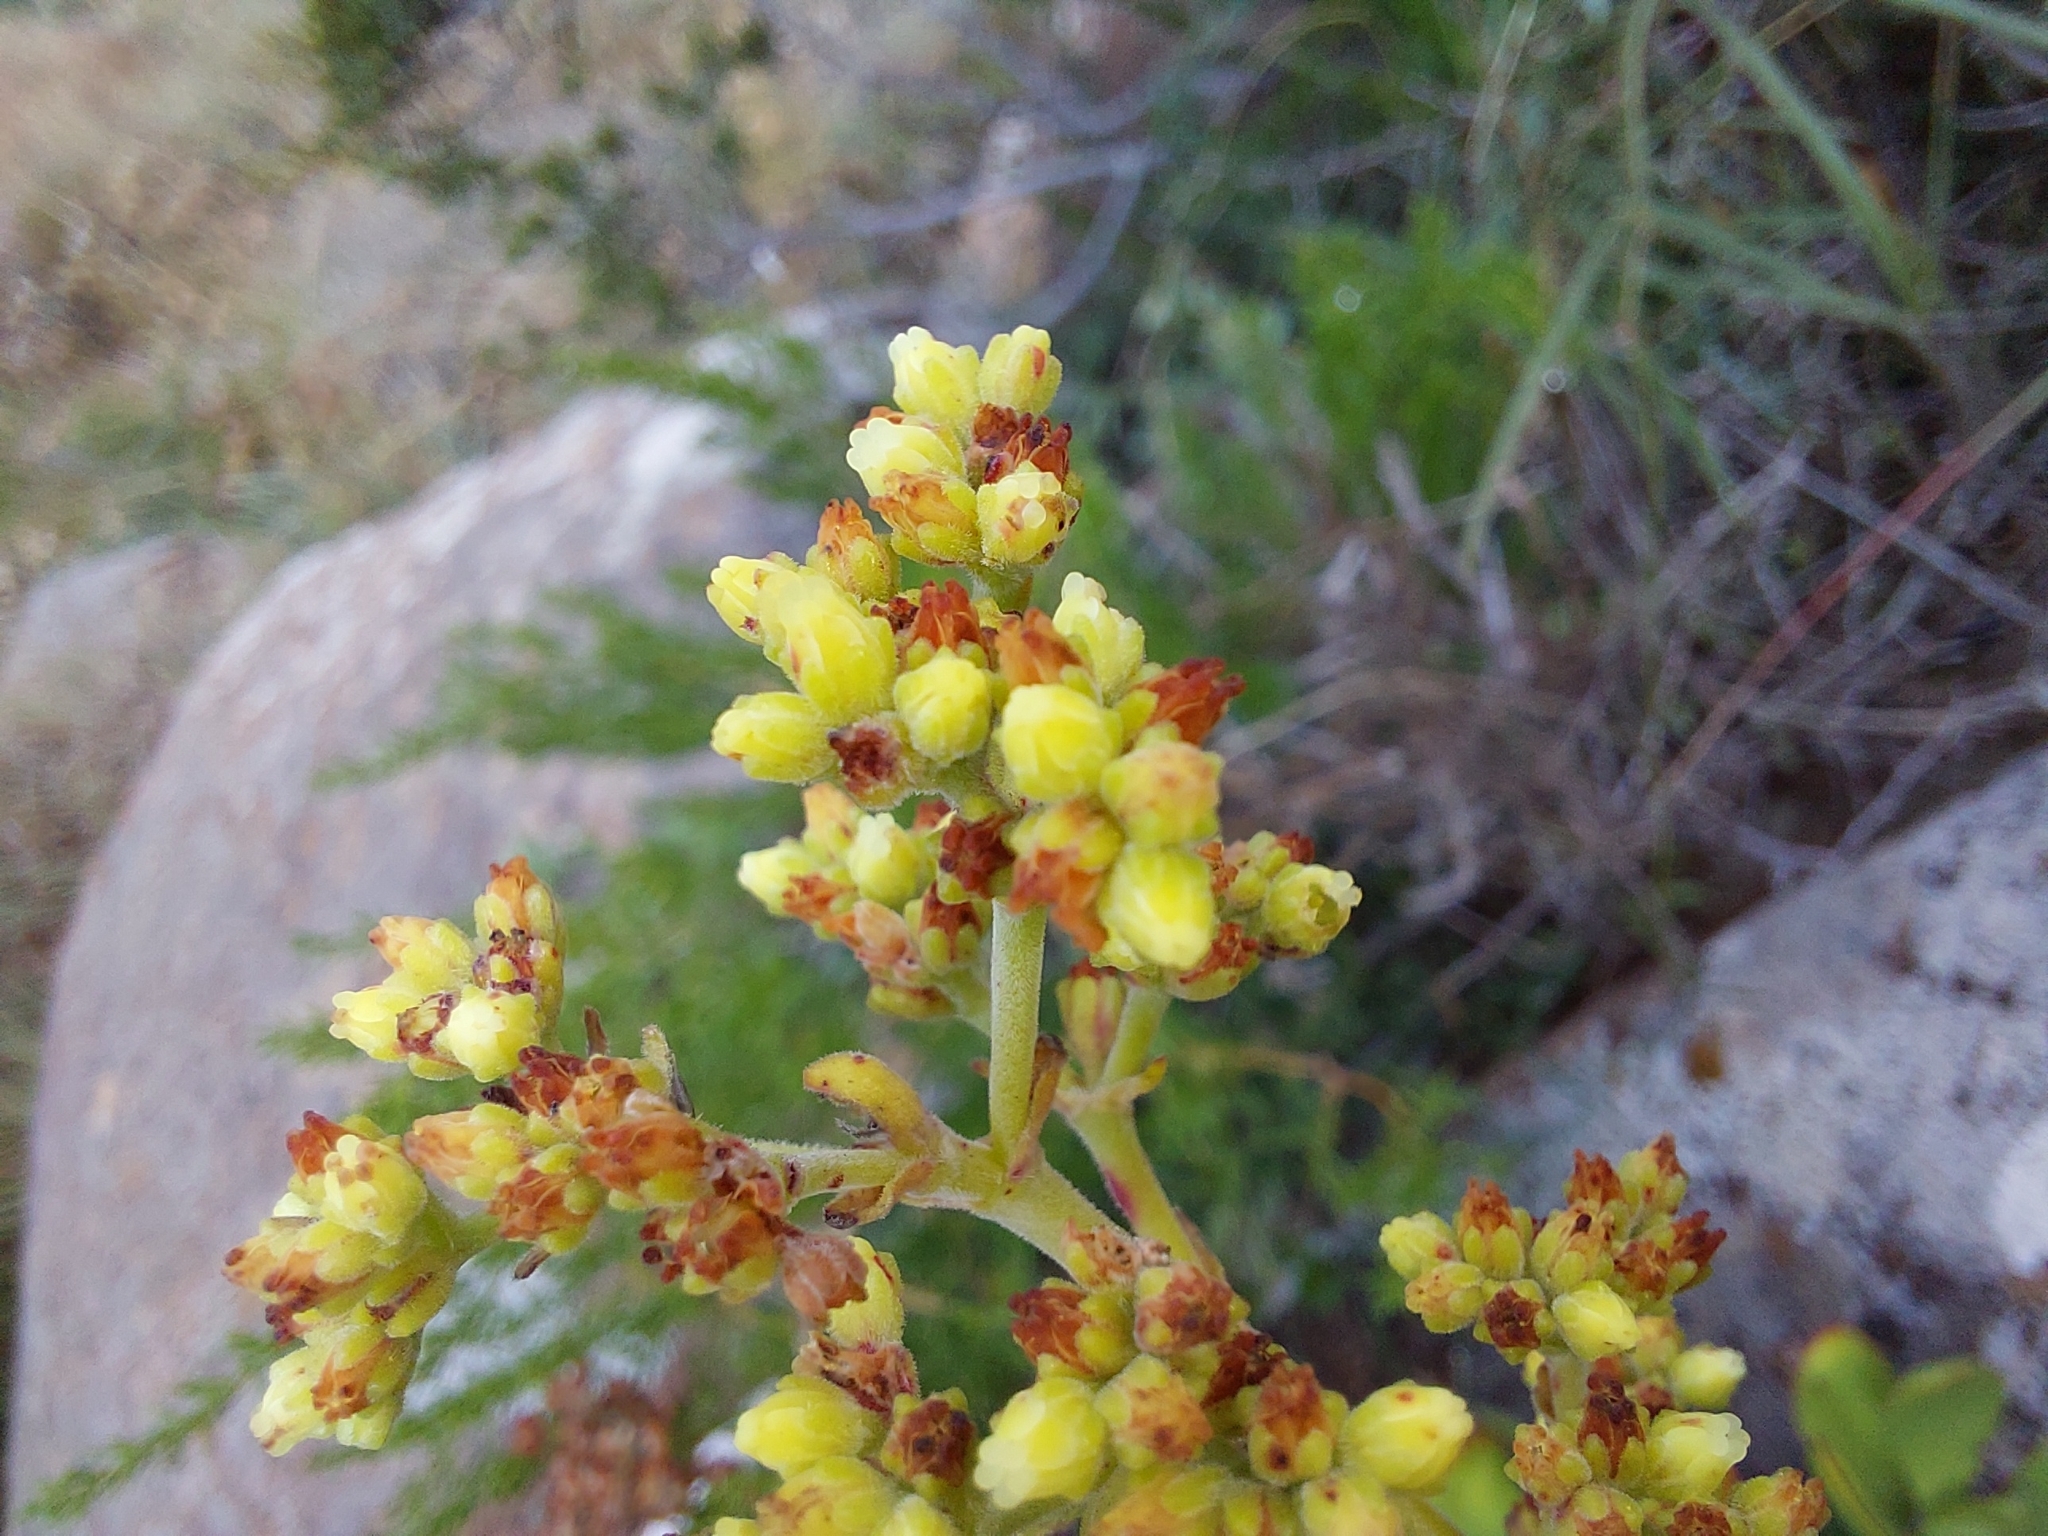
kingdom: Plantae
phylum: Tracheophyta
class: Magnoliopsida
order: Saxifragales
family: Crassulaceae
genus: Crassula
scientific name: Crassula cultrata
